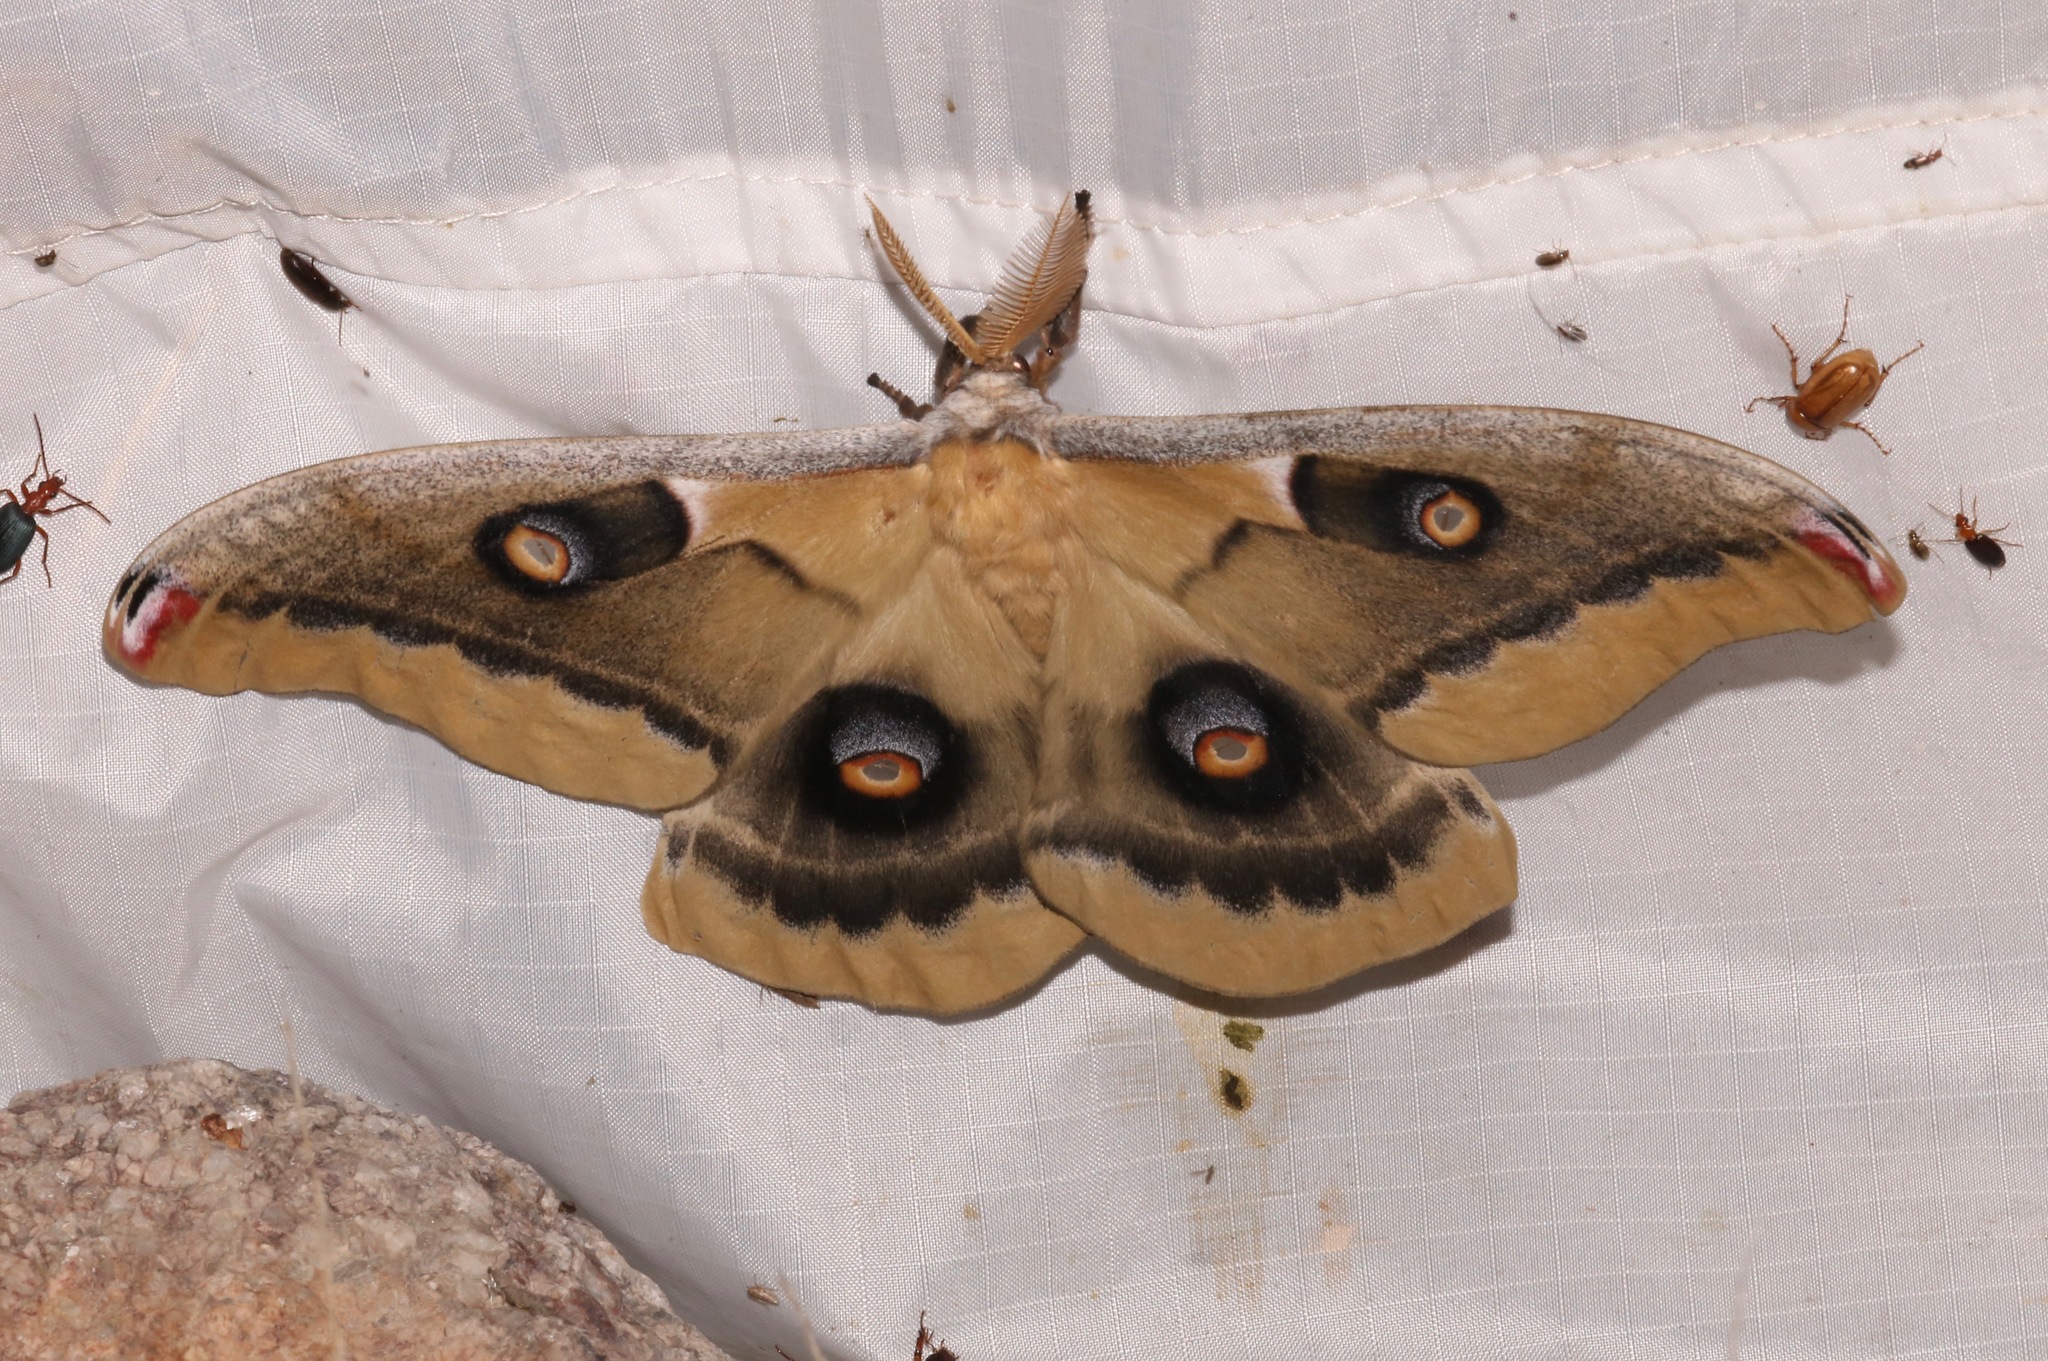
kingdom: Animalia
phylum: Arthropoda
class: Insecta
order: Lepidoptera
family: Saturniidae
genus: Antheraea
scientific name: Antheraea oculea
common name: Arizona polyphemus moth
